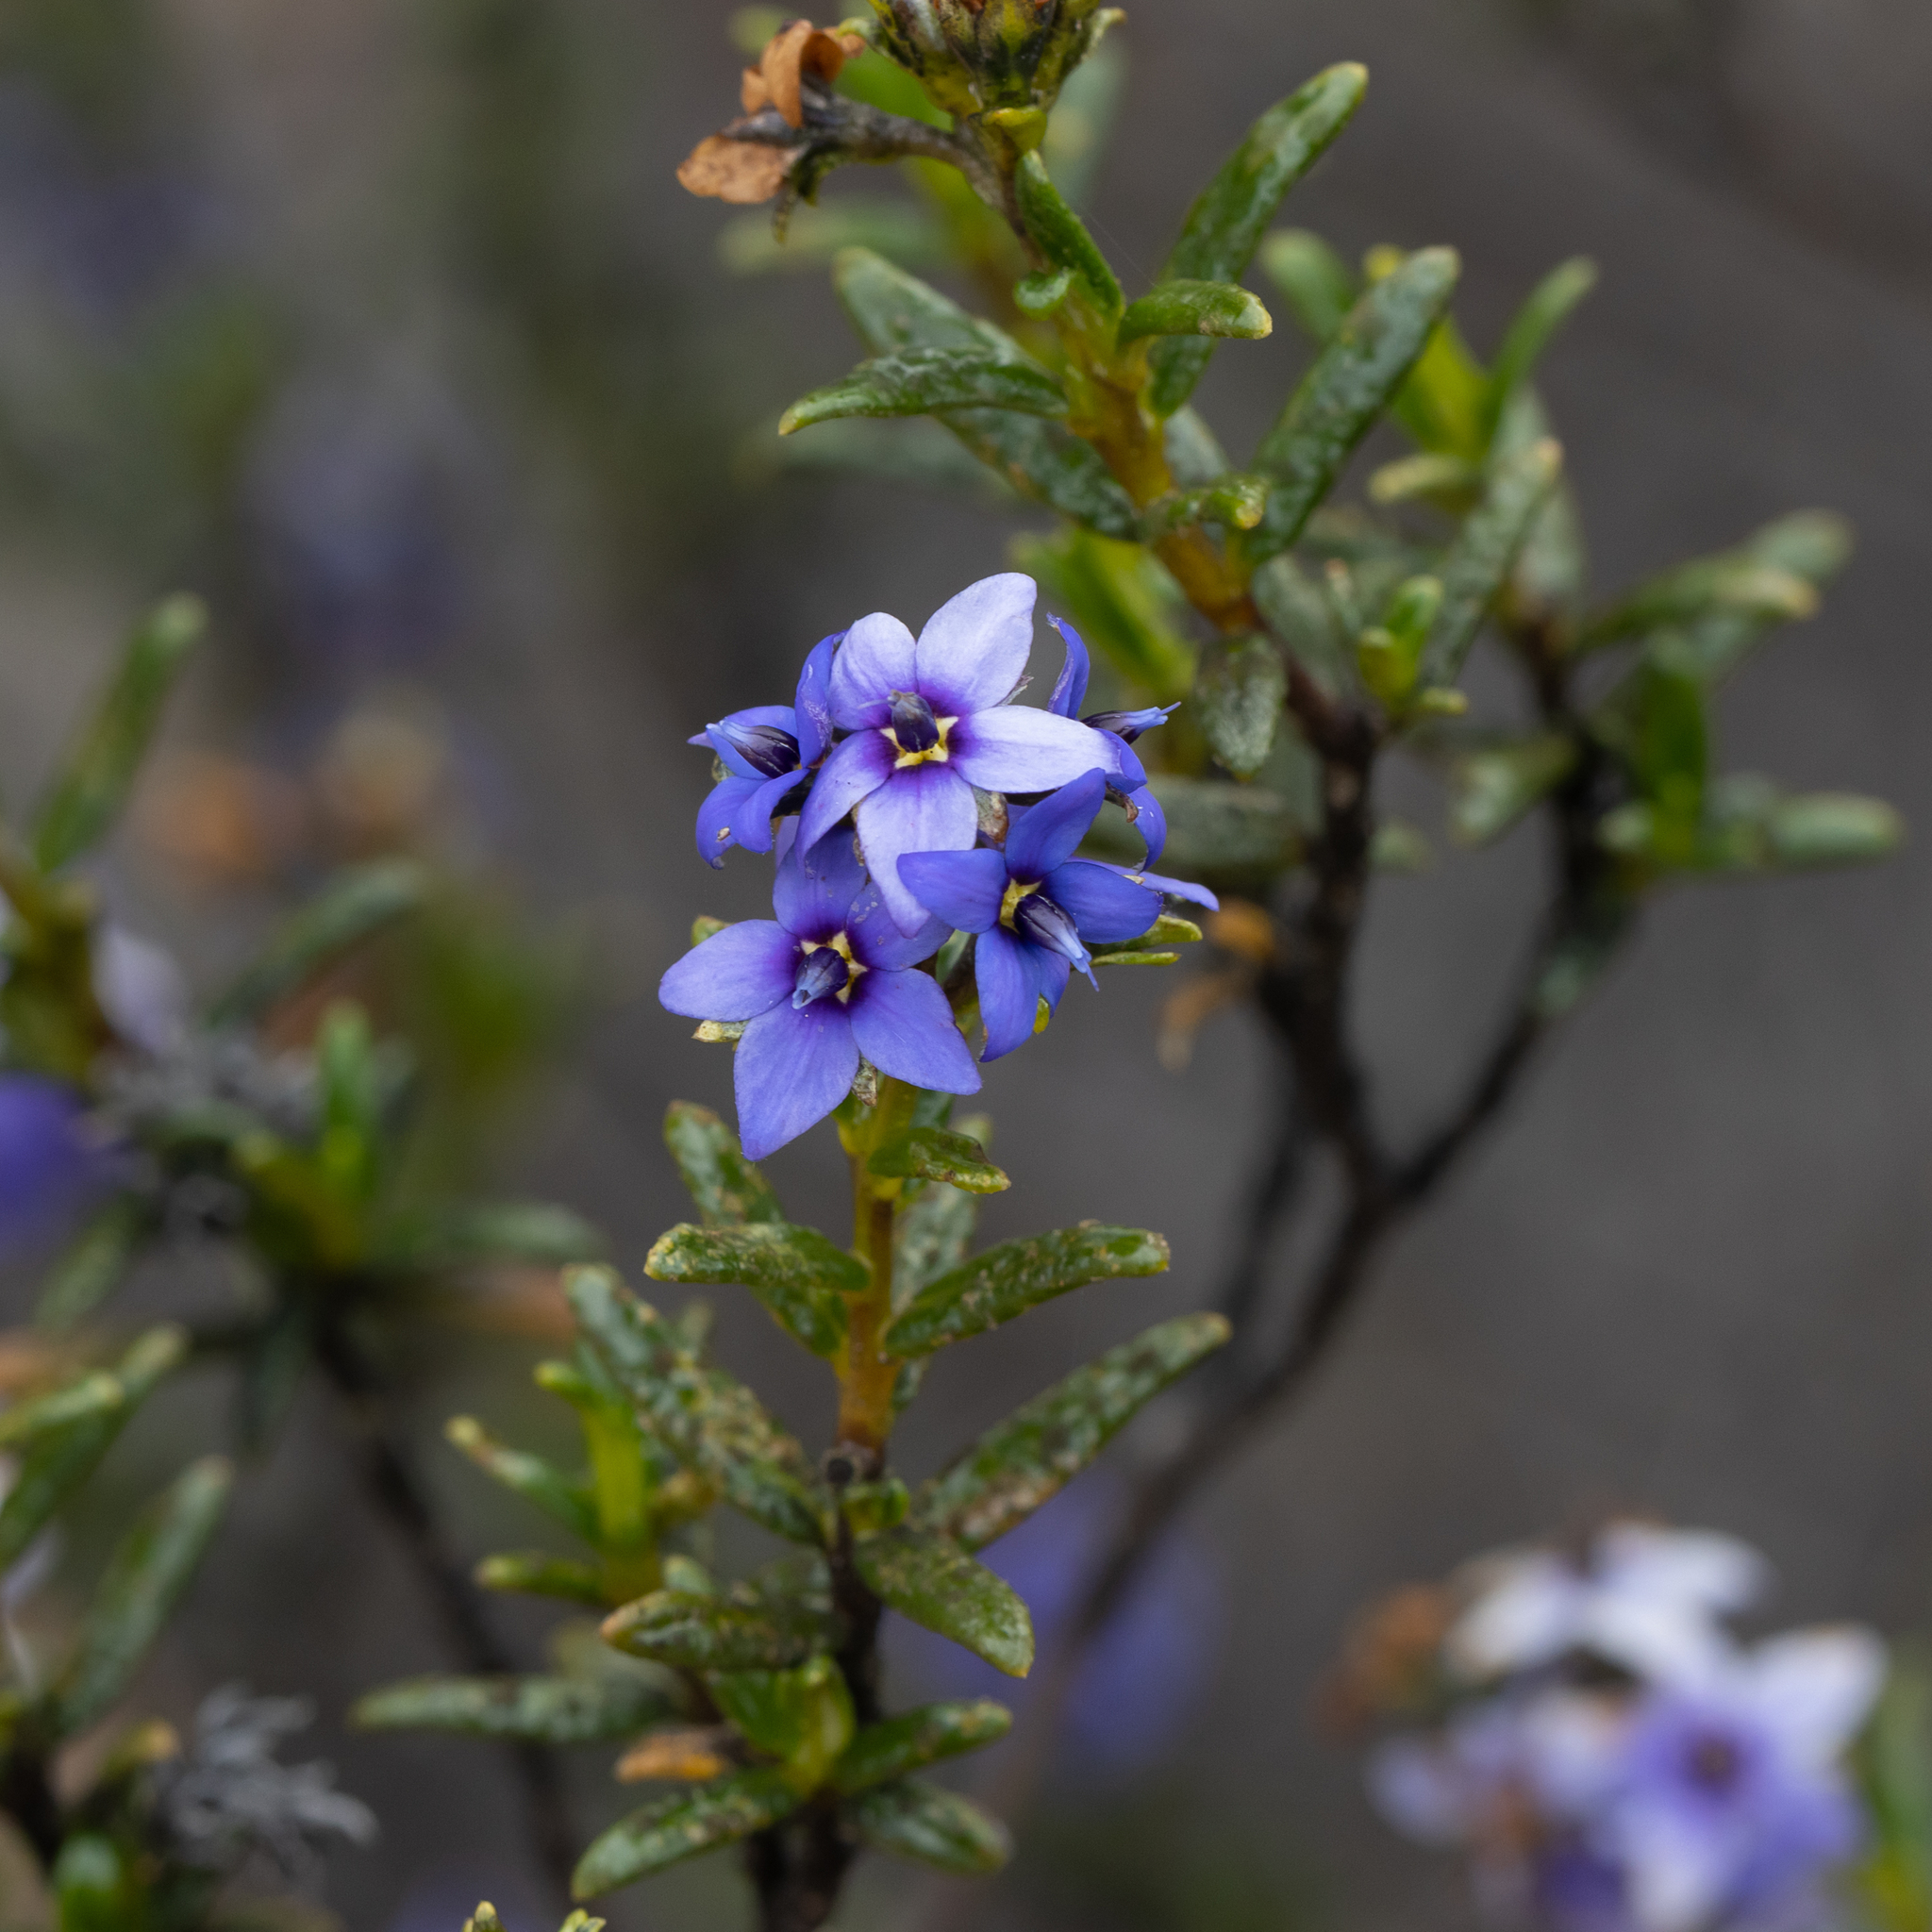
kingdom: Plantae
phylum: Tracheophyta
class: Magnoliopsida
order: Boraginales
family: Ehretiaceae
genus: Halgania
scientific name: Halgania andromedifolia
